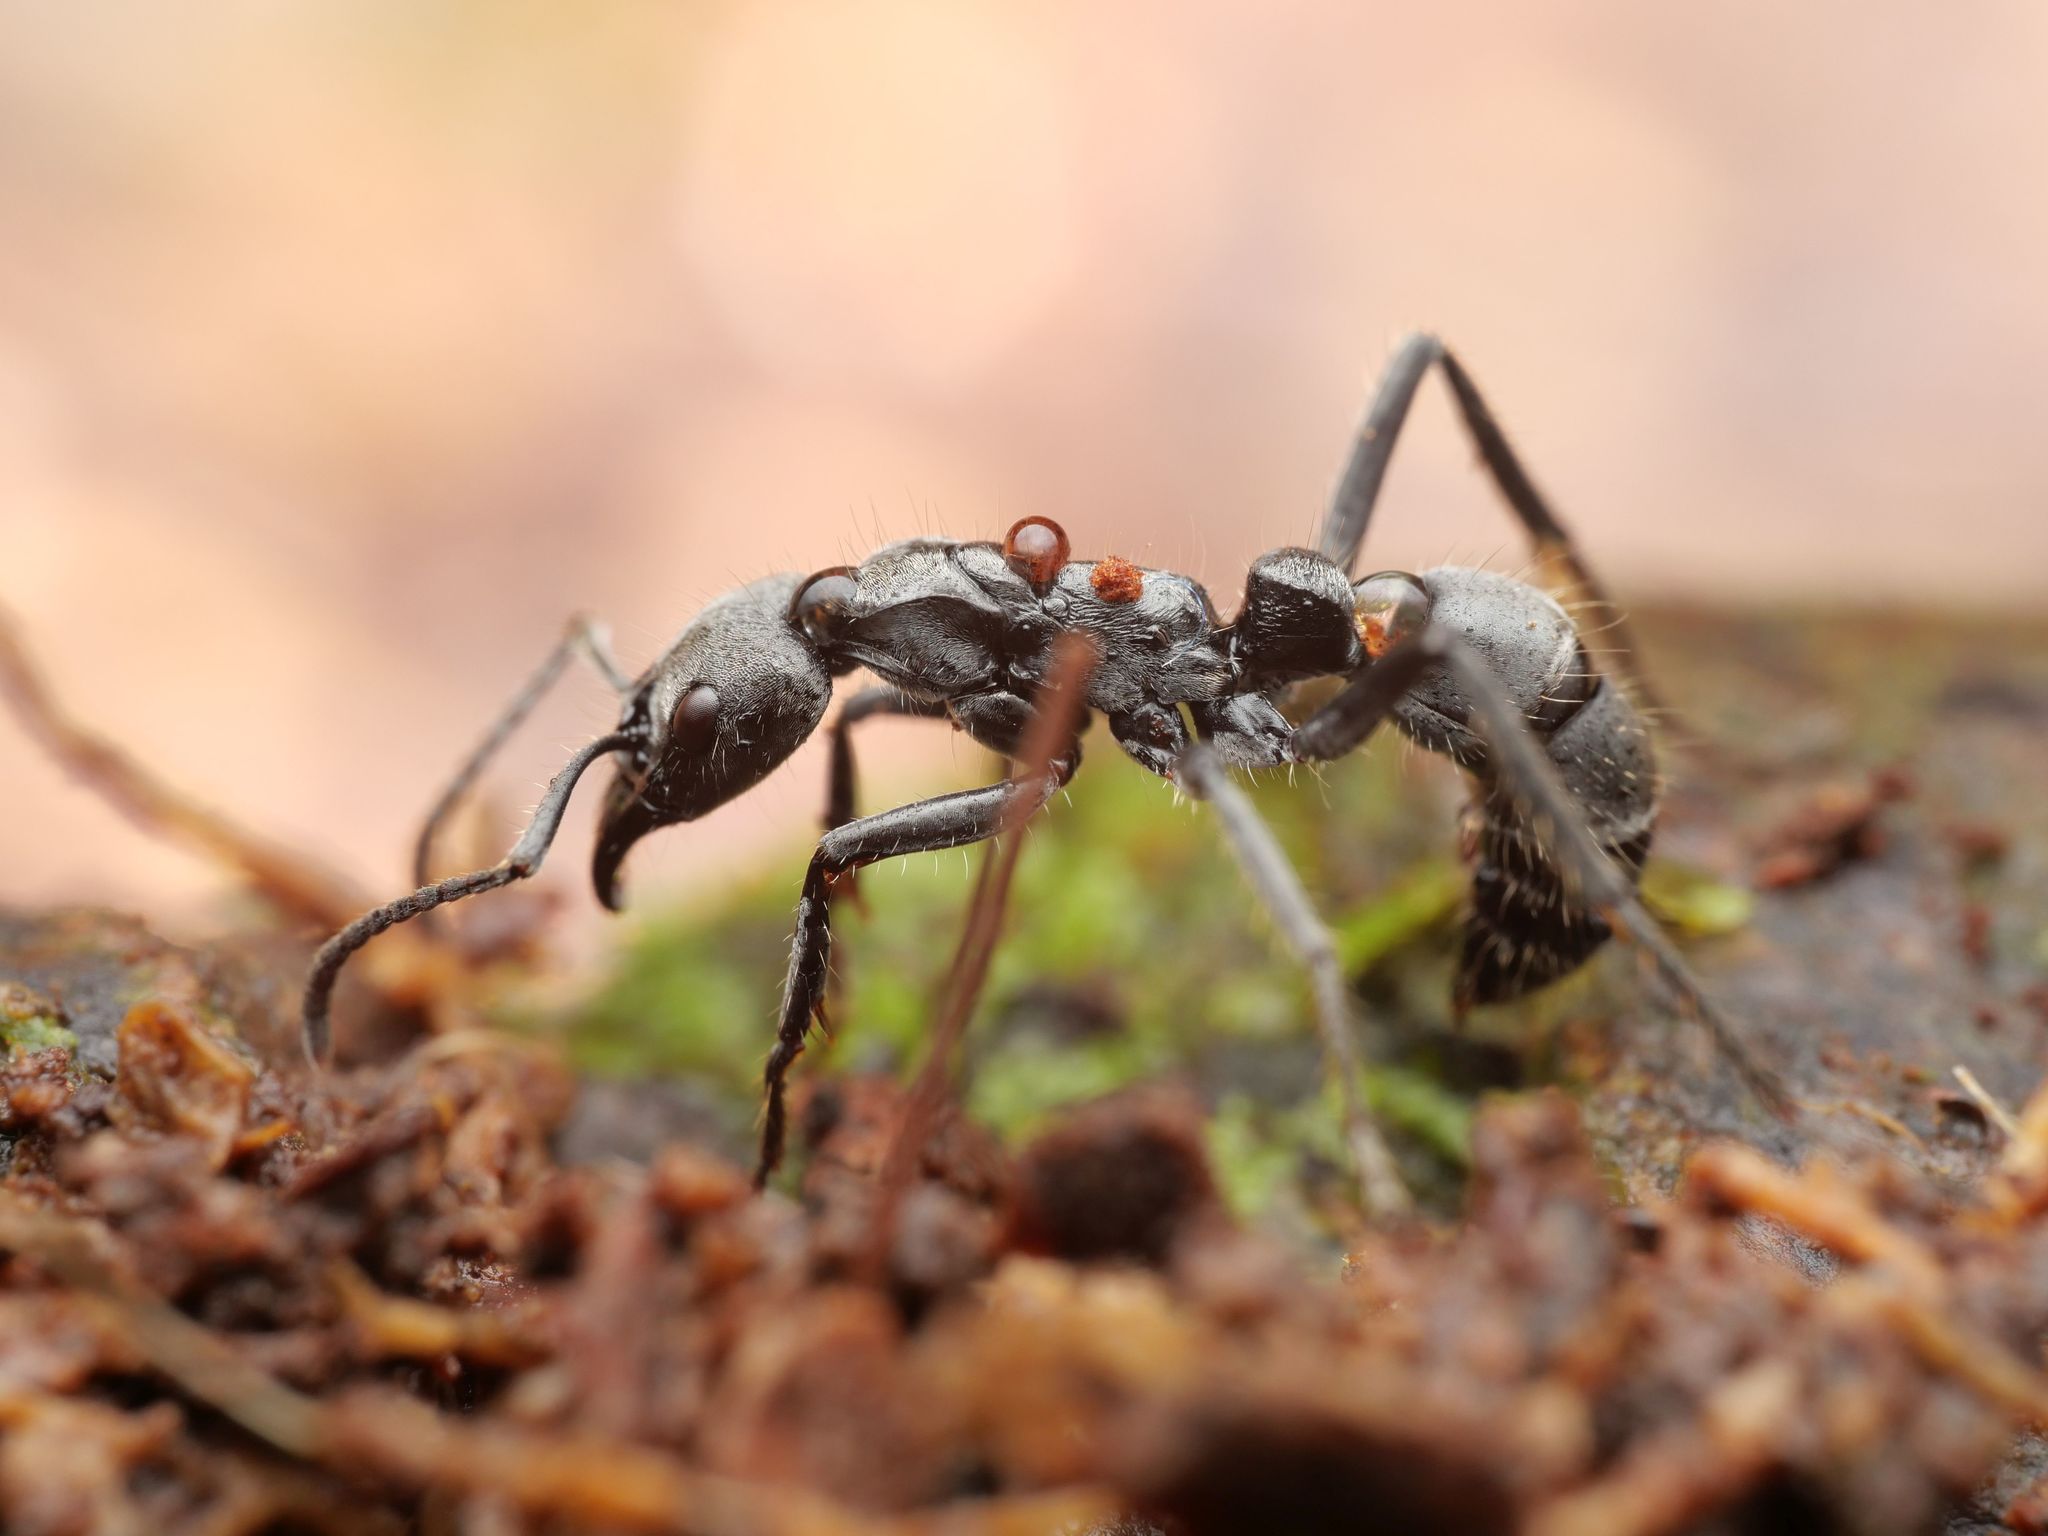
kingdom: Animalia
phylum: Arthropoda
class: Insecta
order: Hymenoptera
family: Formicidae
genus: Pachycondyla
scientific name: Pachycondyla foetida
